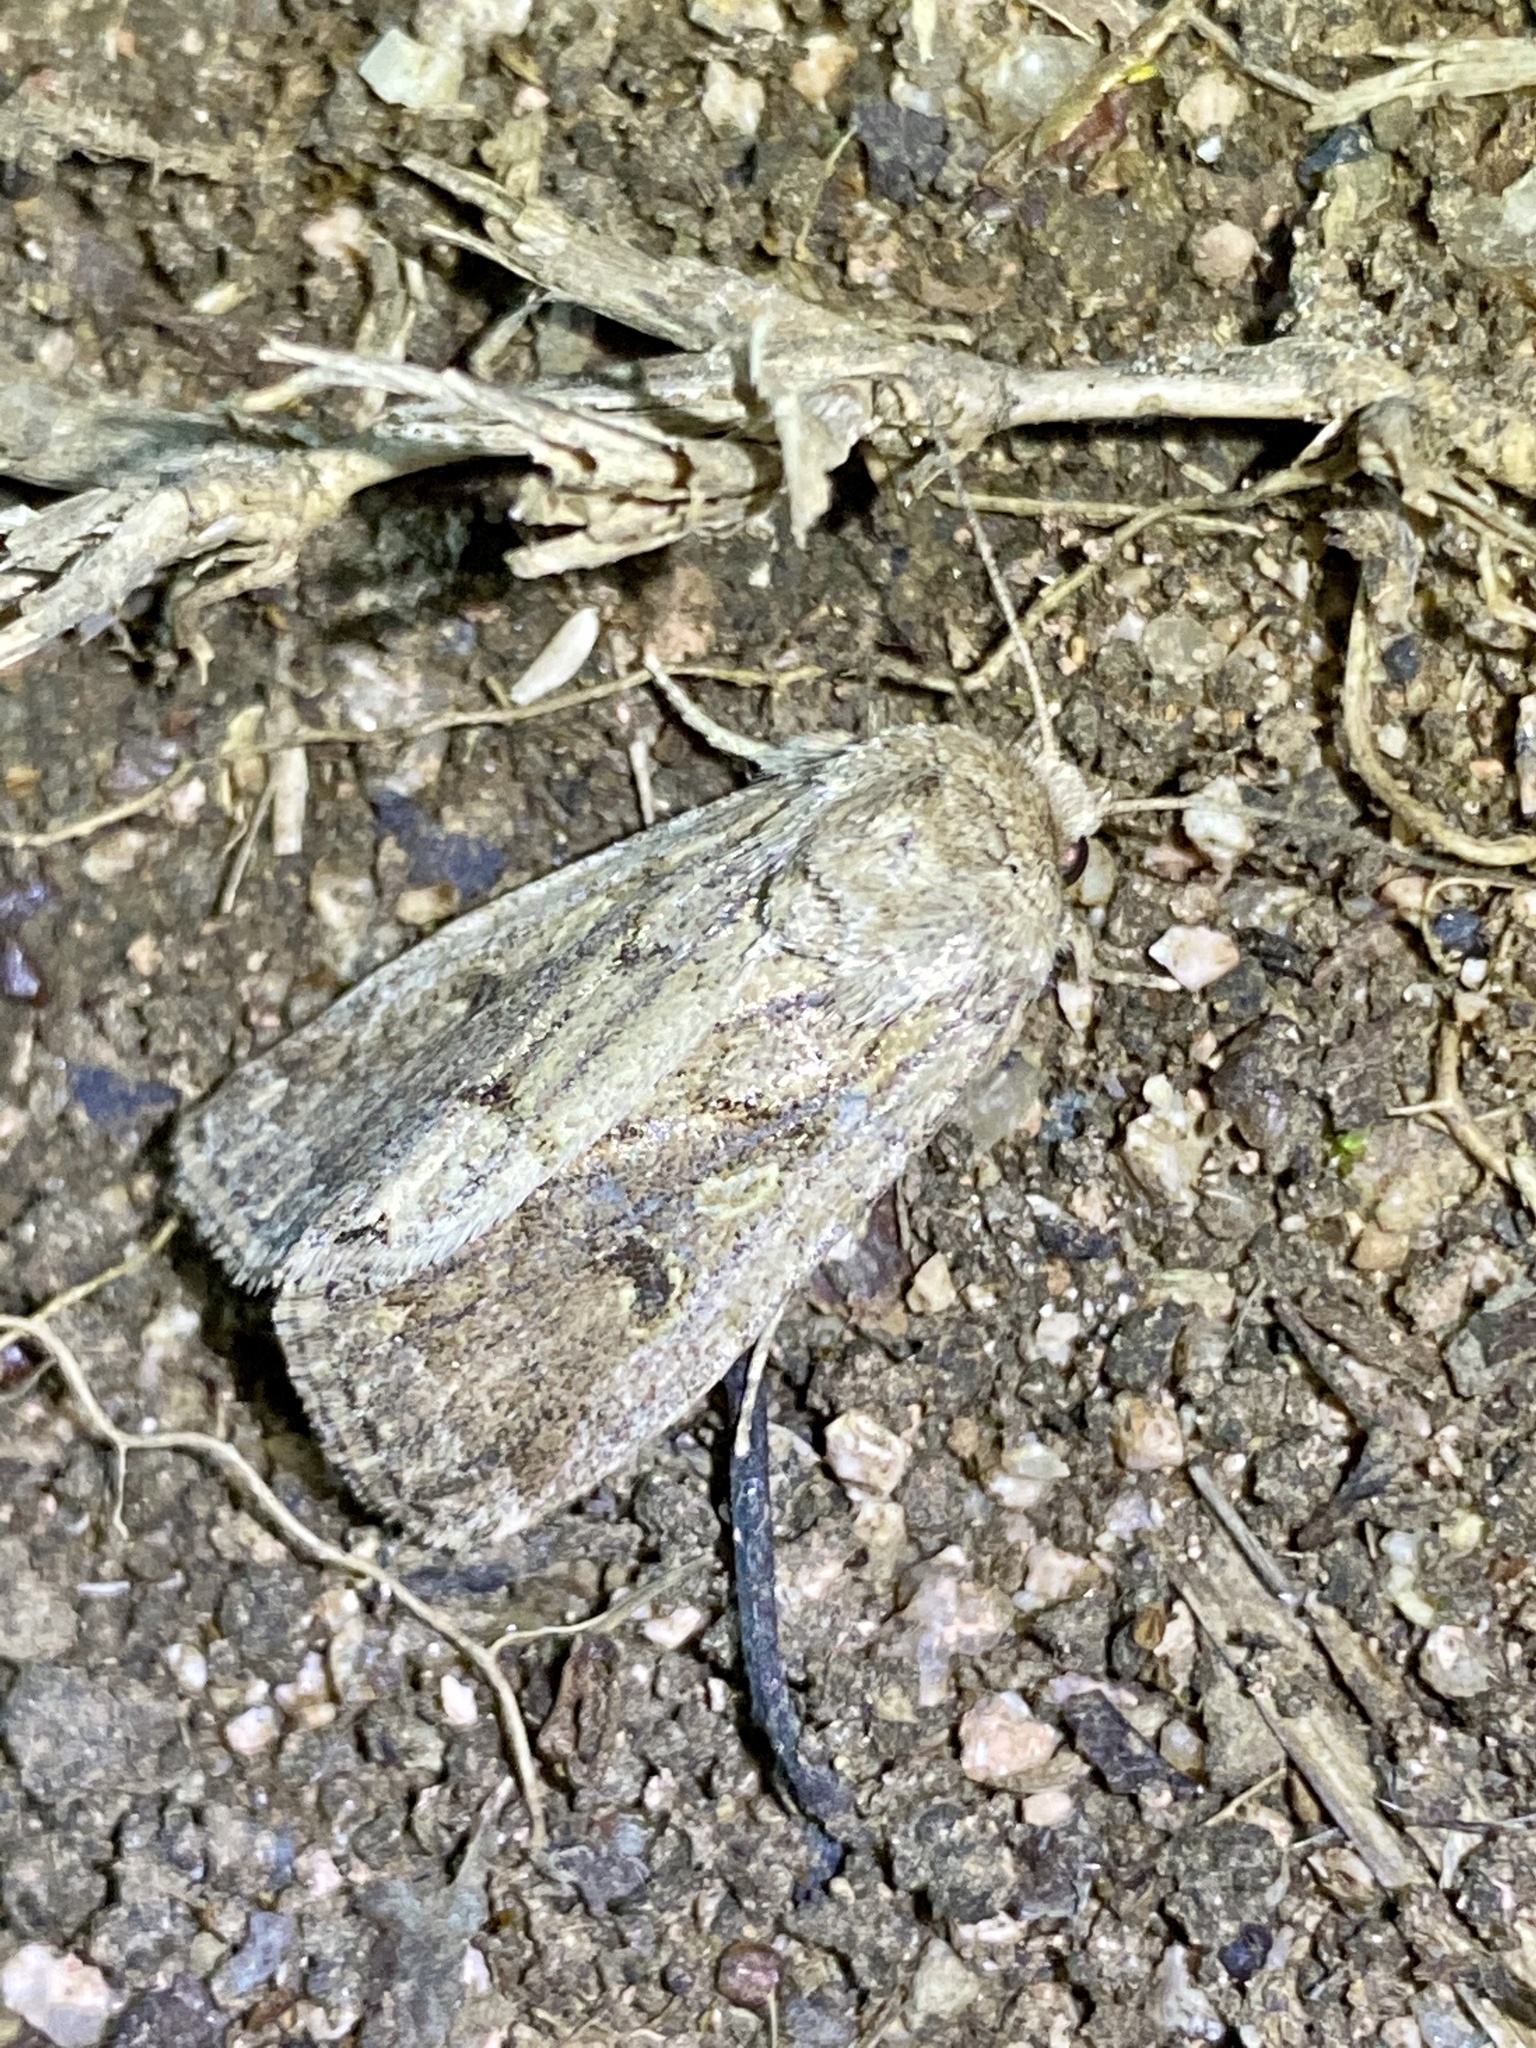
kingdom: Animalia
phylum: Arthropoda
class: Insecta
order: Lepidoptera
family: Noctuidae
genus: Spodoptera
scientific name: Spodoptera depravata
